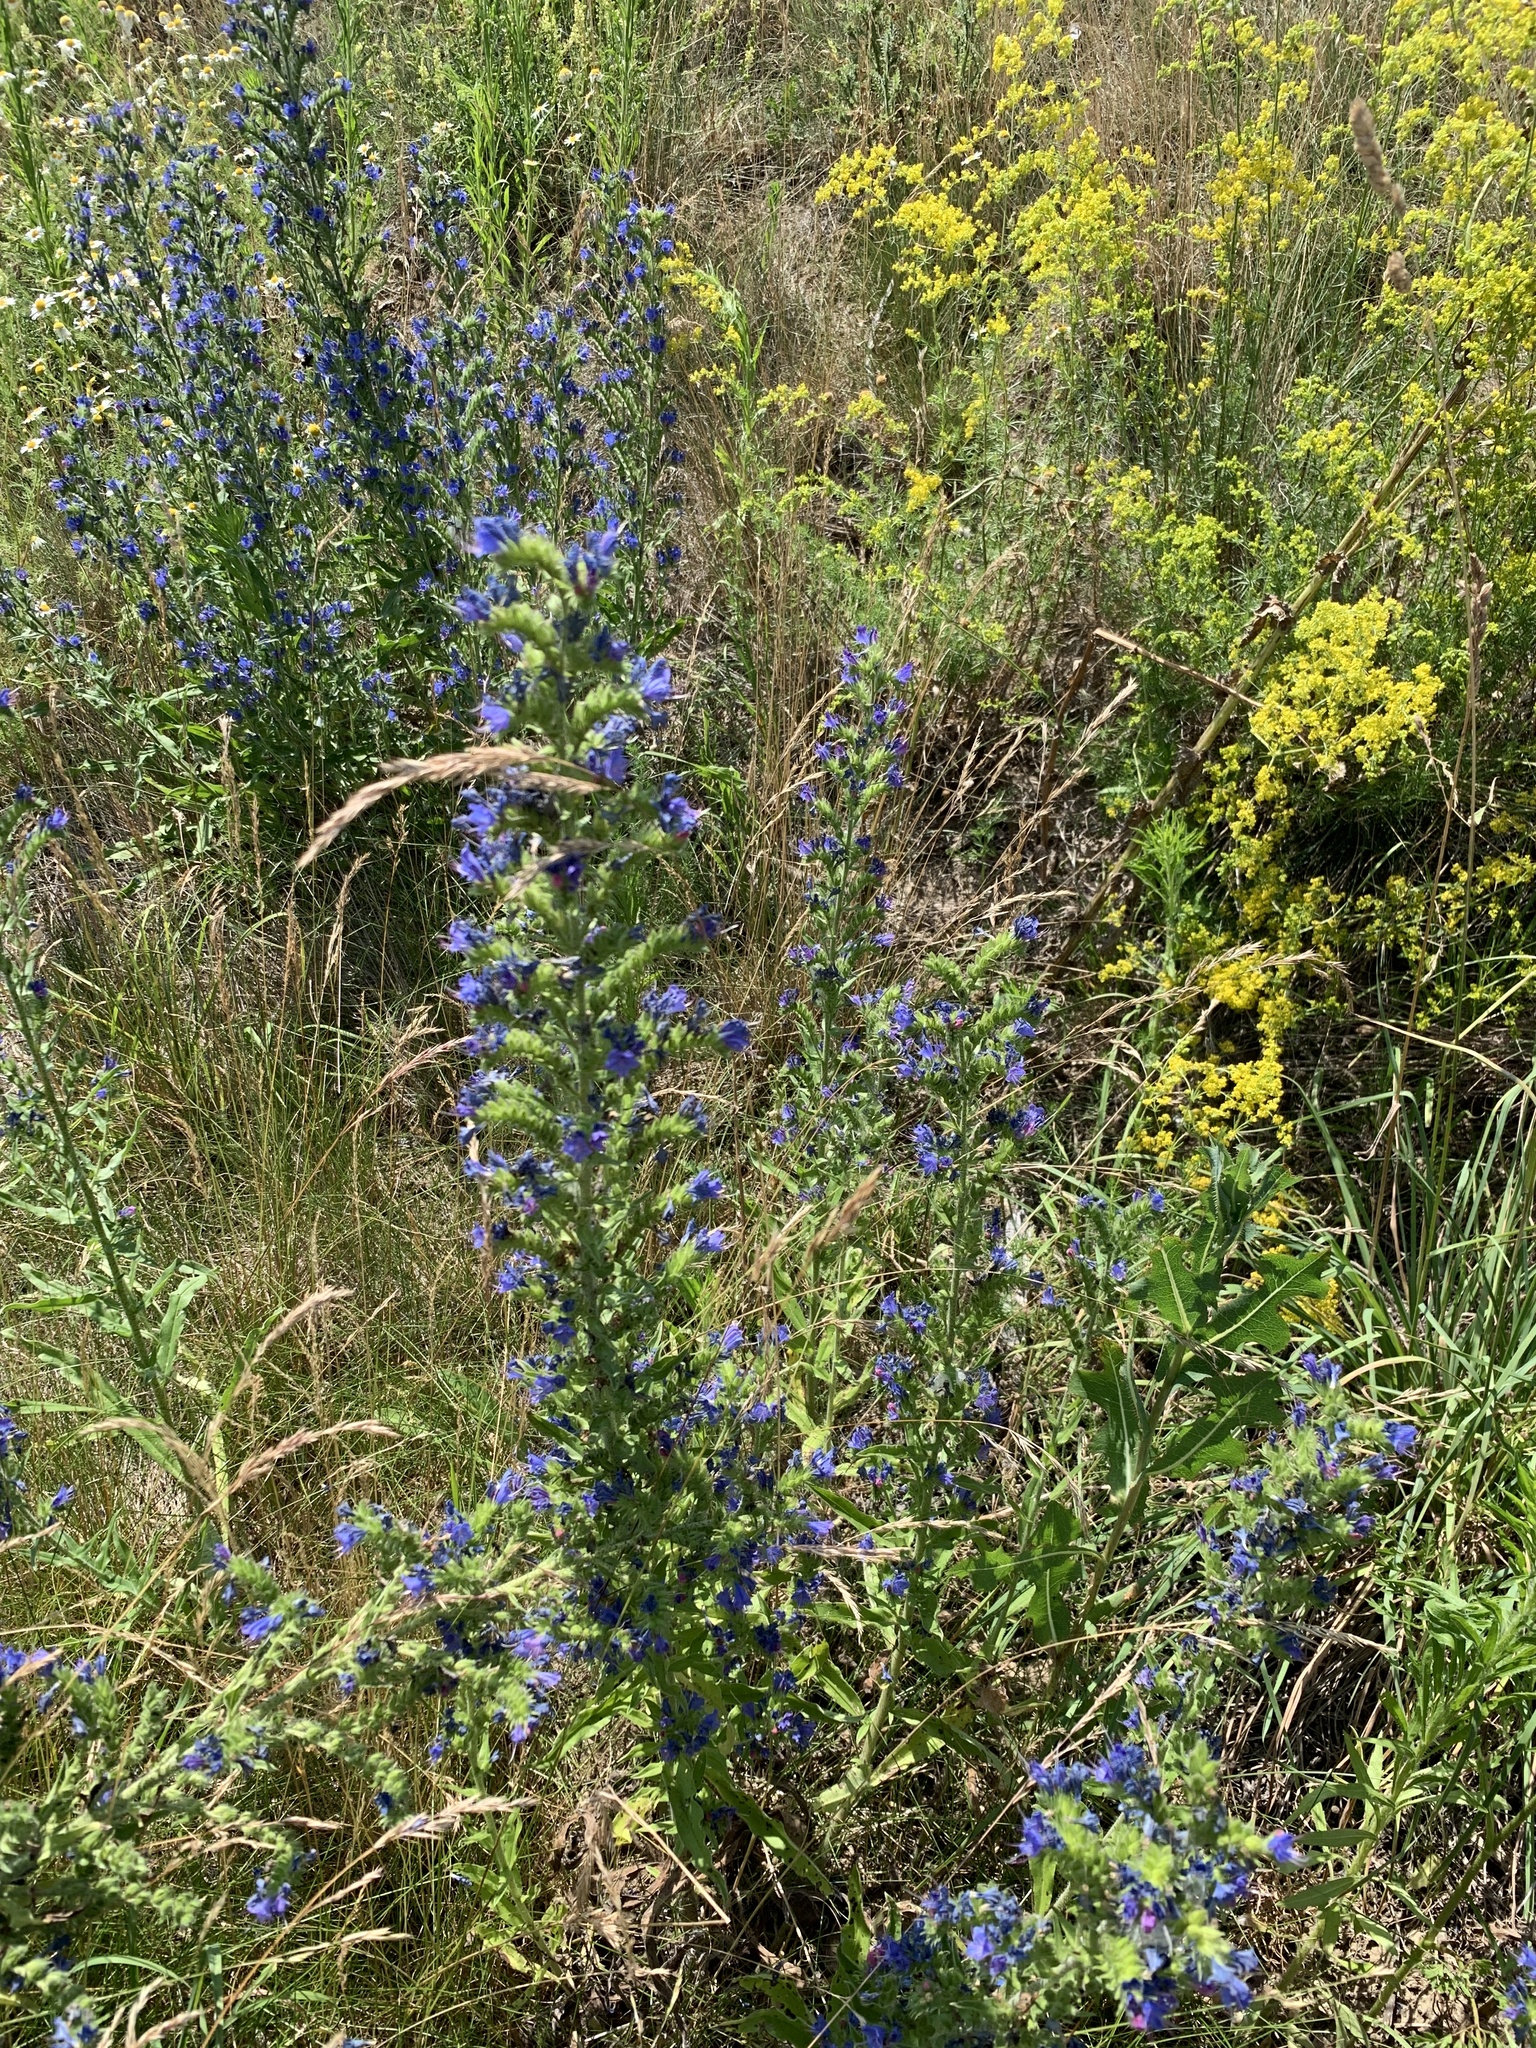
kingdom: Plantae
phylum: Tracheophyta
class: Magnoliopsida
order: Boraginales
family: Boraginaceae
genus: Echium
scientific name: Echium vulgare
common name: Common viper's bugloss
